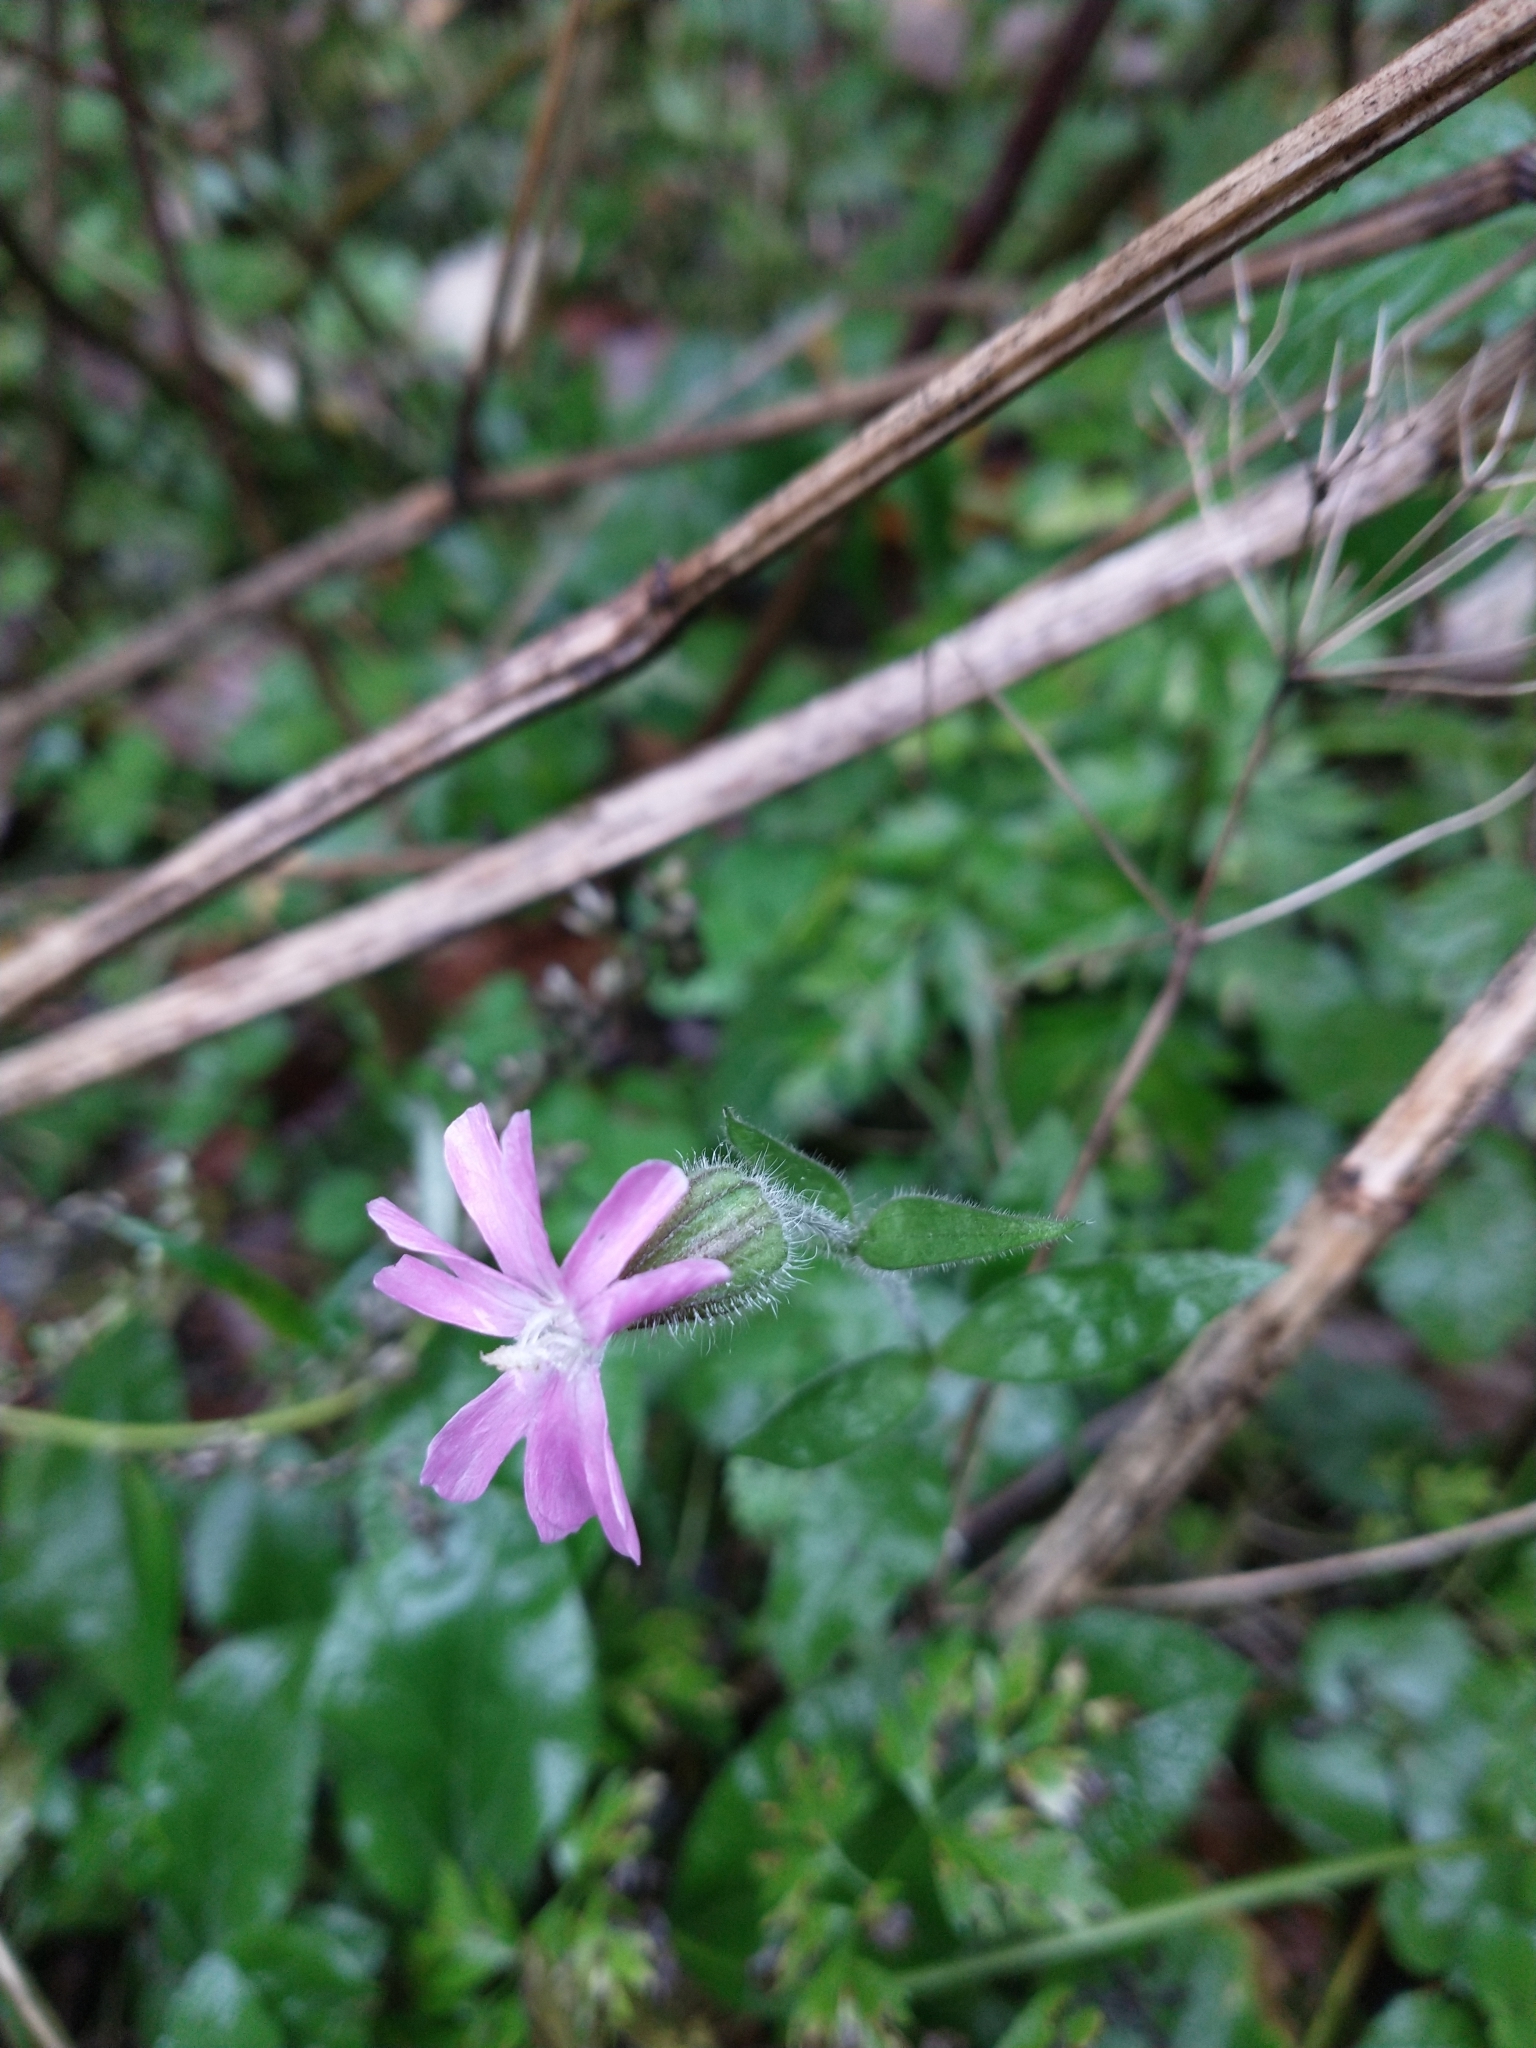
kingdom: Plantae
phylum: Tracheophyta
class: Magnoliopsida
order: Caryophyllales
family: Caryophyllaceae
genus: Silene
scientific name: Silene dioica
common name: Red campion
